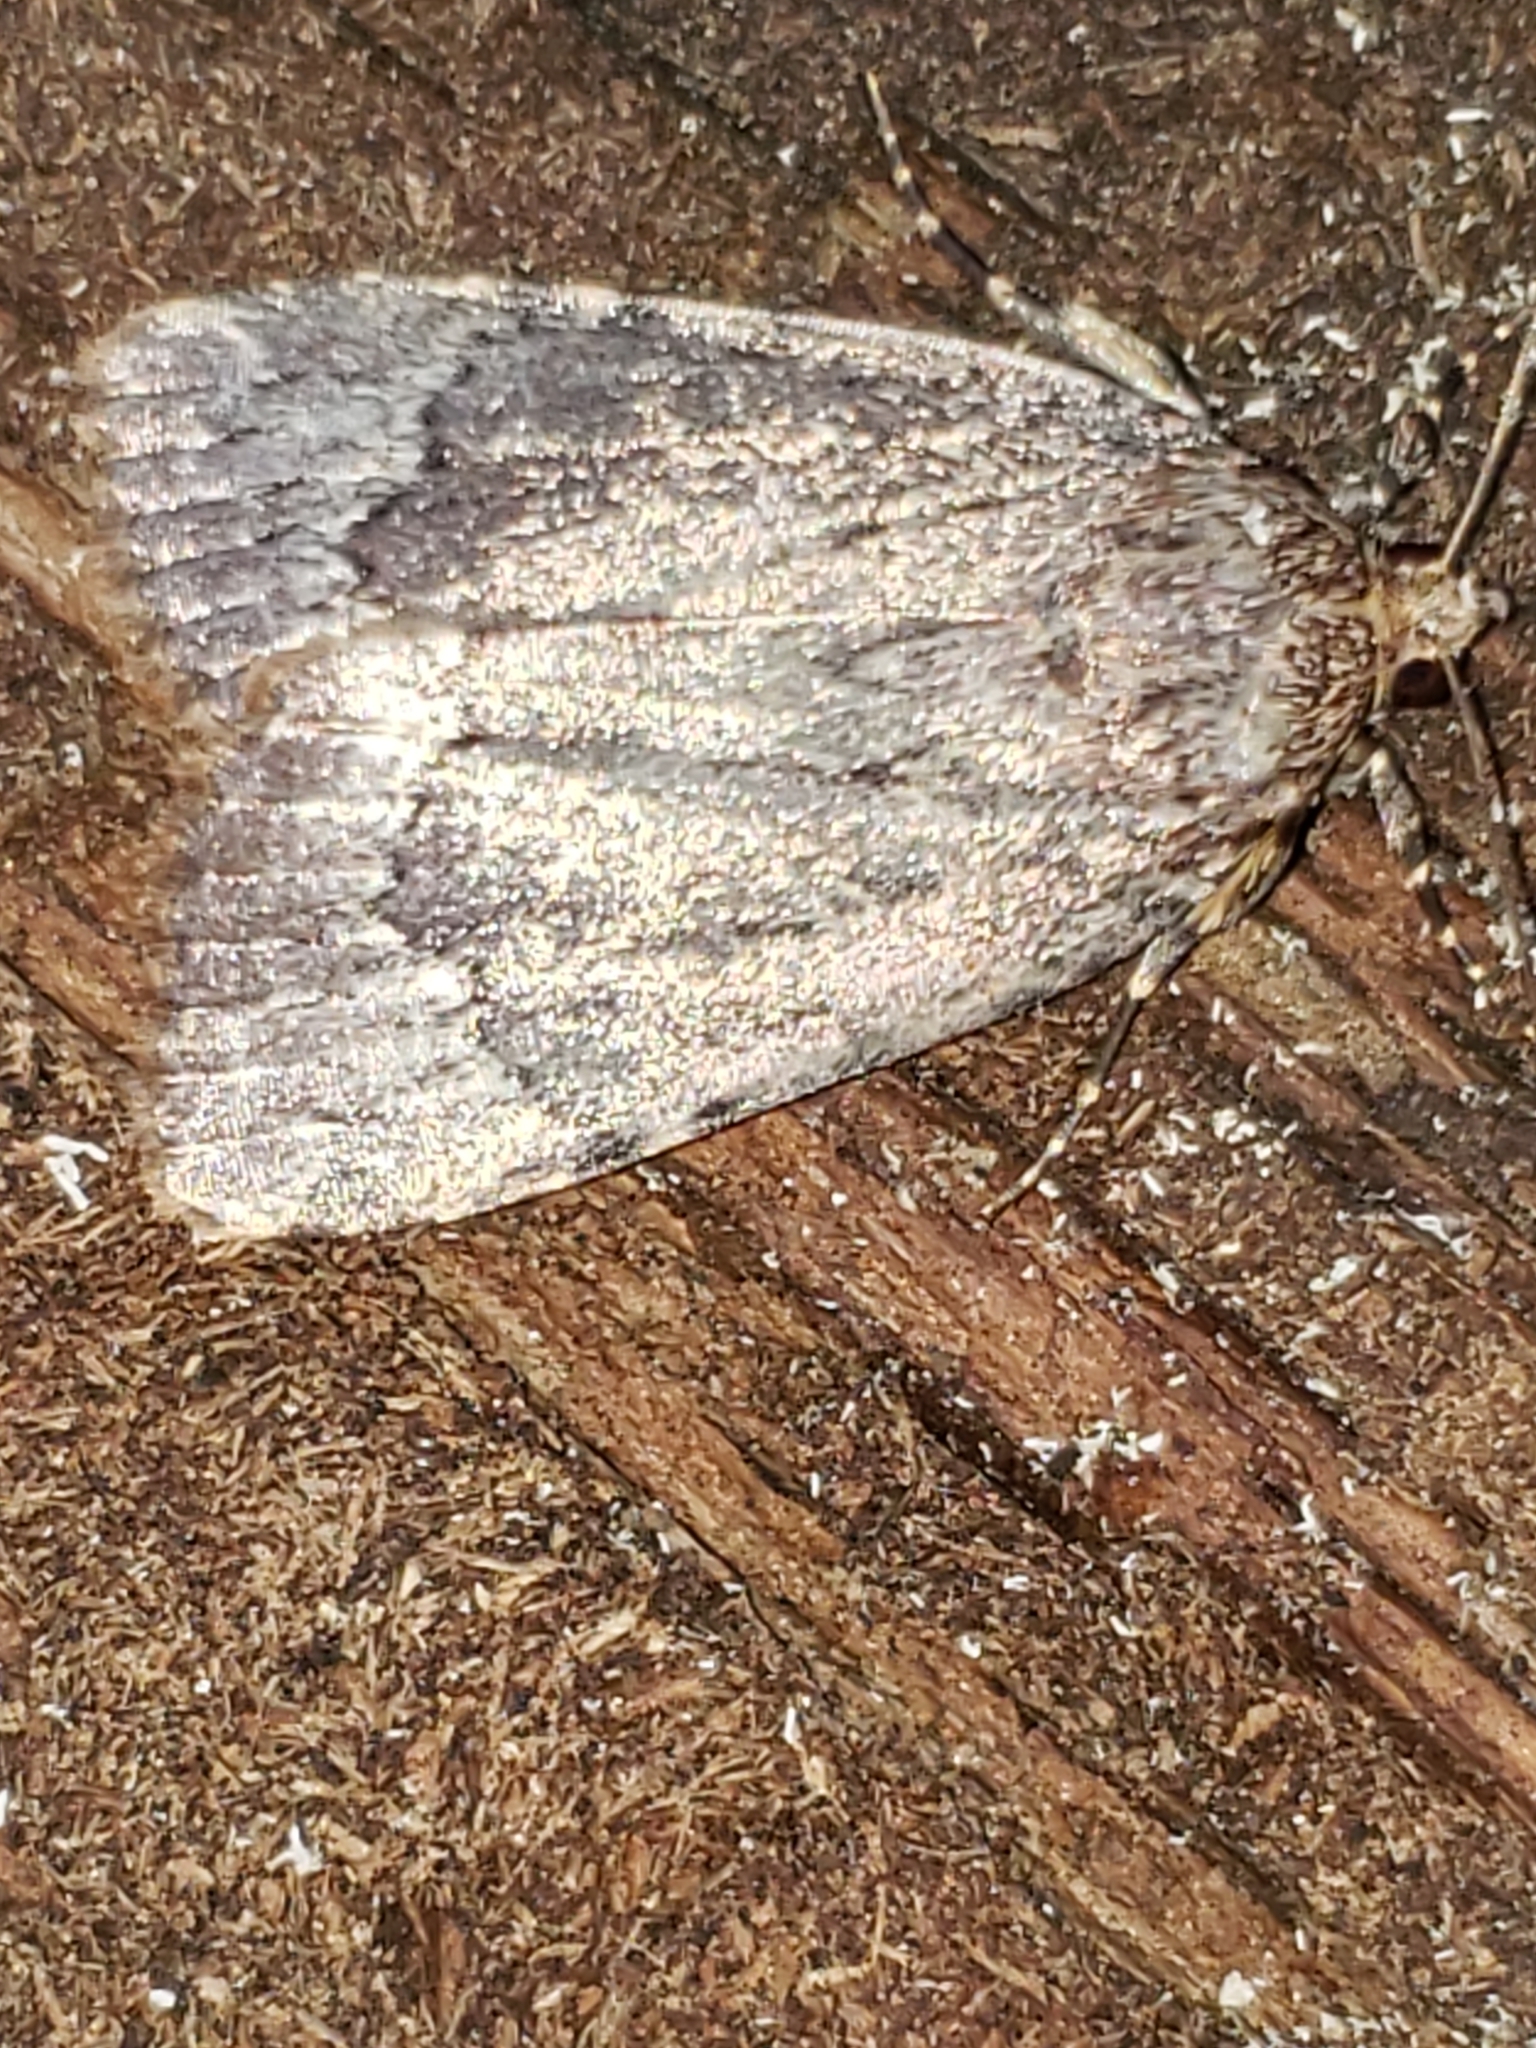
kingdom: Animalia
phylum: Arthropoda
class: Insecta
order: Lepidoptera
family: Noctuidae
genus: Amphipyra
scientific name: Amphipyra pyramidoides
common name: American copper underwing
